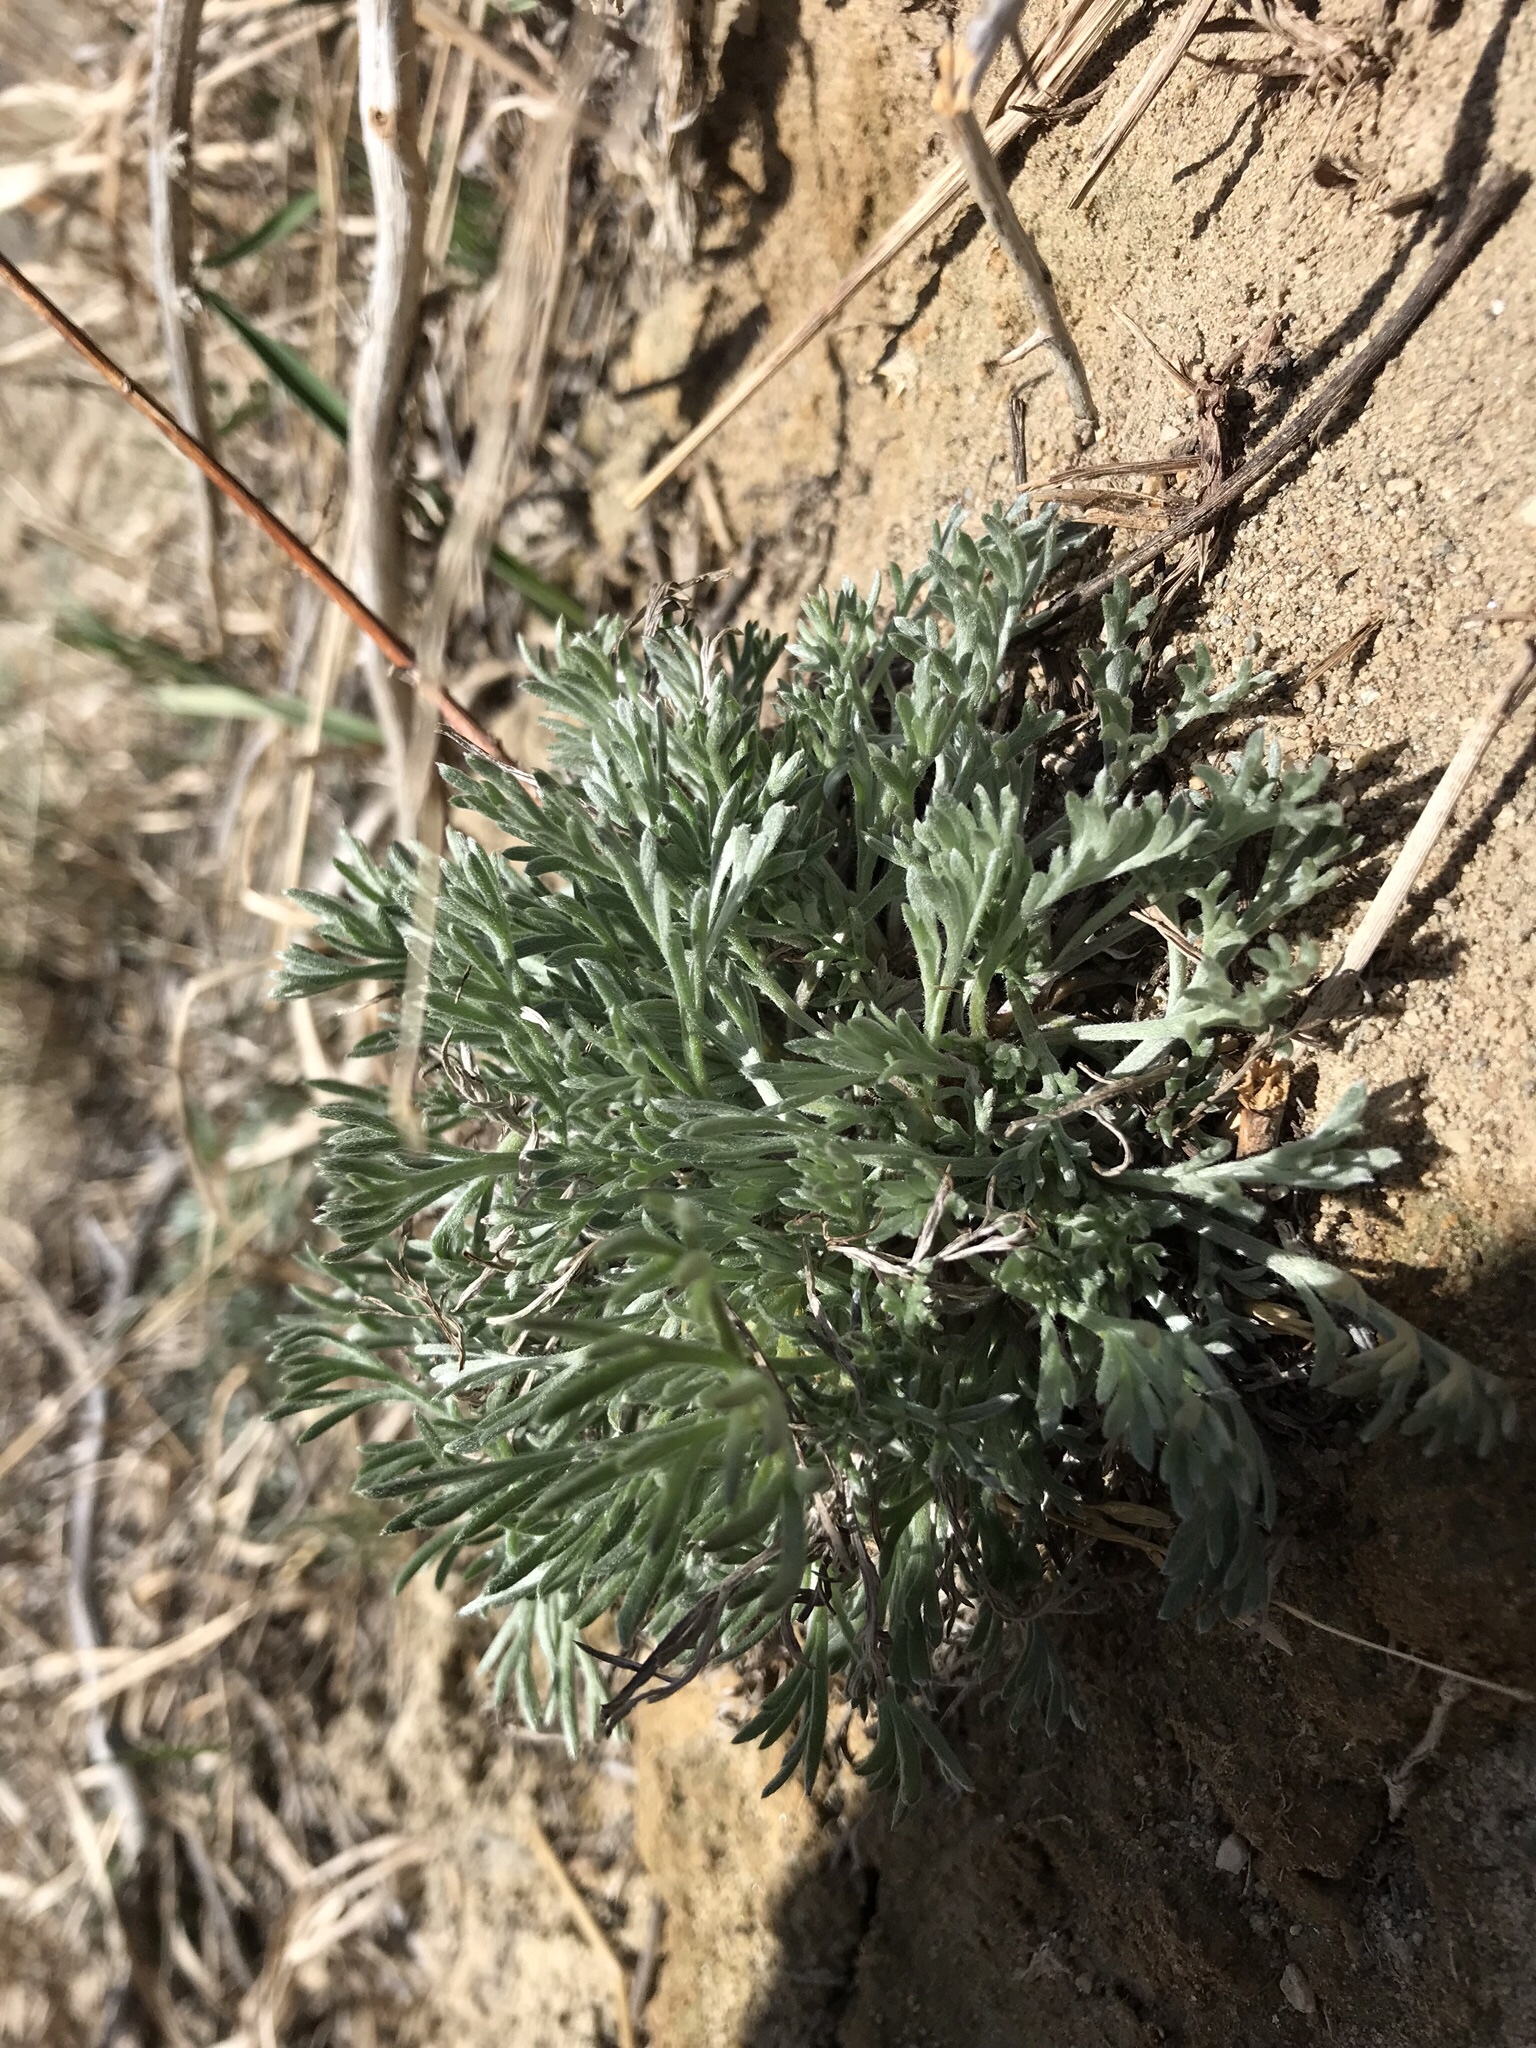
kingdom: Plantae
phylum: Tracheophyta
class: Magnoliopsida
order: Asterales
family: Asteraceae
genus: Artemisia
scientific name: Artemisia campestris
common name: Field wormwood
